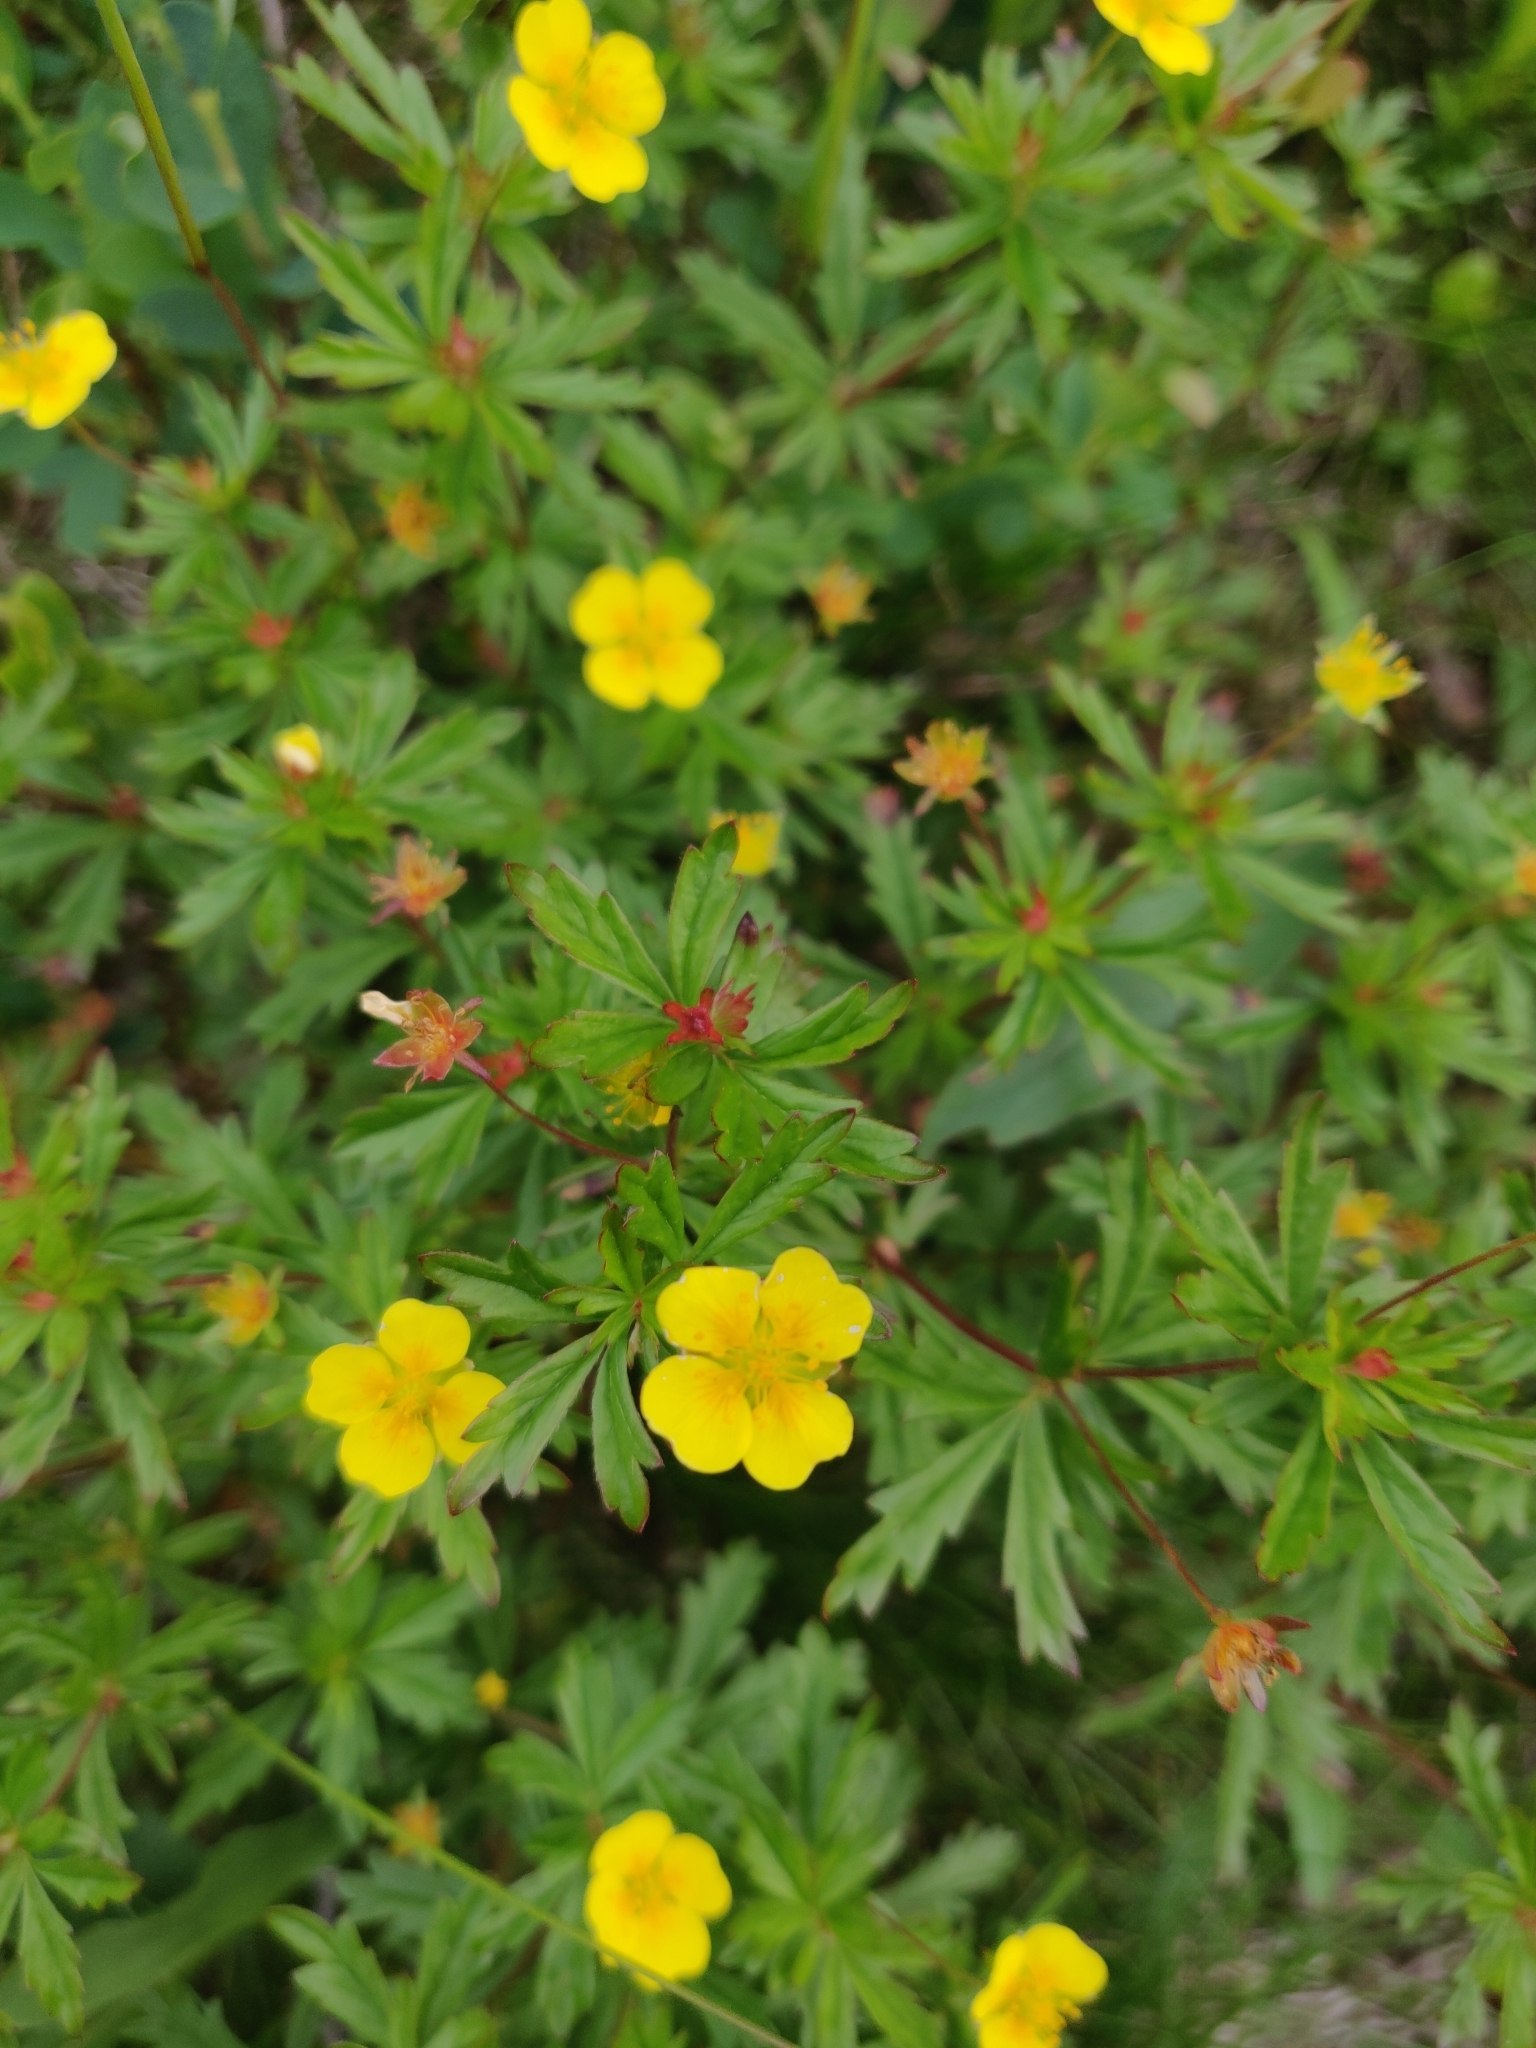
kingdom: Plantae
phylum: Tracheophyta
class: Magnoliopsida
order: Rosales
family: Rosaceae
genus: Potentilla
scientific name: Potentilla erecta
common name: Tormentil
